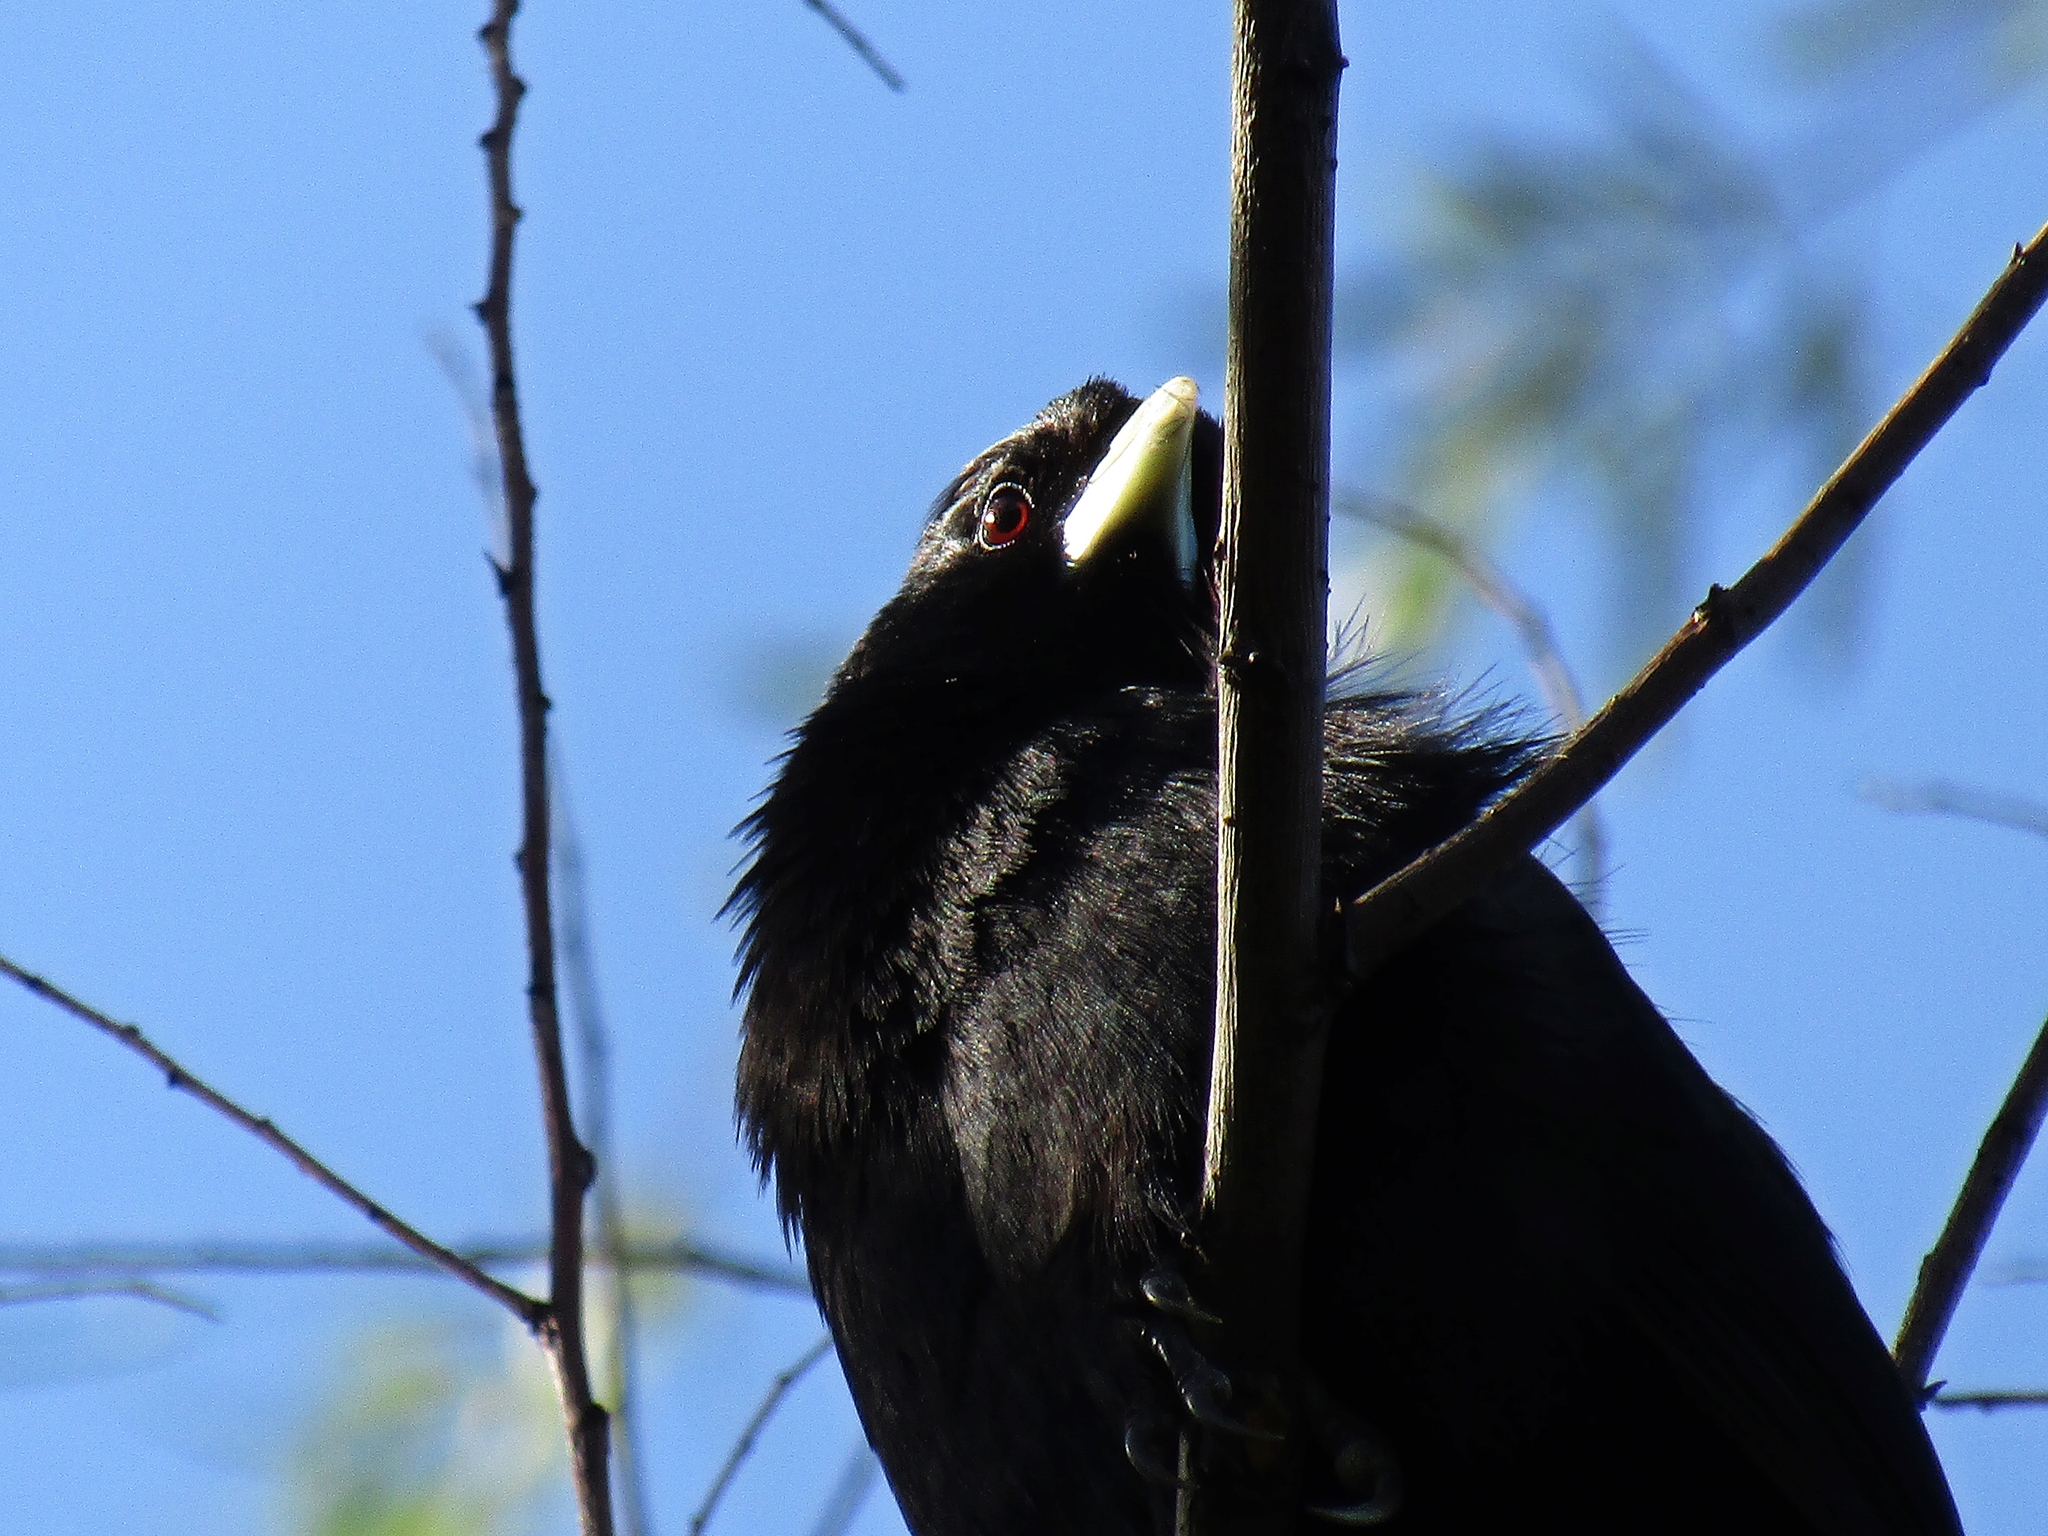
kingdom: Animalia
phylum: Chordata
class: Aves
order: Passeriformes
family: Icteridae
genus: Cacicus
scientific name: Cacicus solitarius
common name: Solitary cacique
